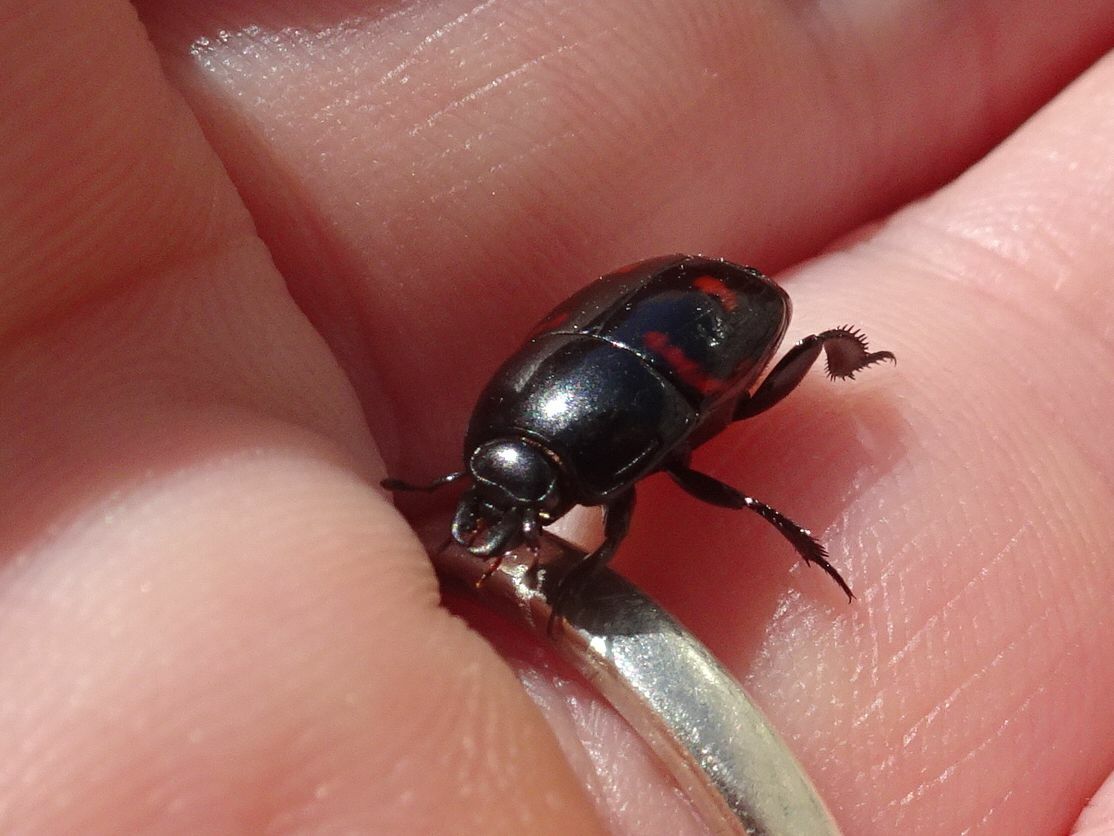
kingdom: Animalia
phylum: Arthropoda
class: Insecta
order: Coleoptera
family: Histeridae
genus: Hister
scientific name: Hister quadrimaculatus
